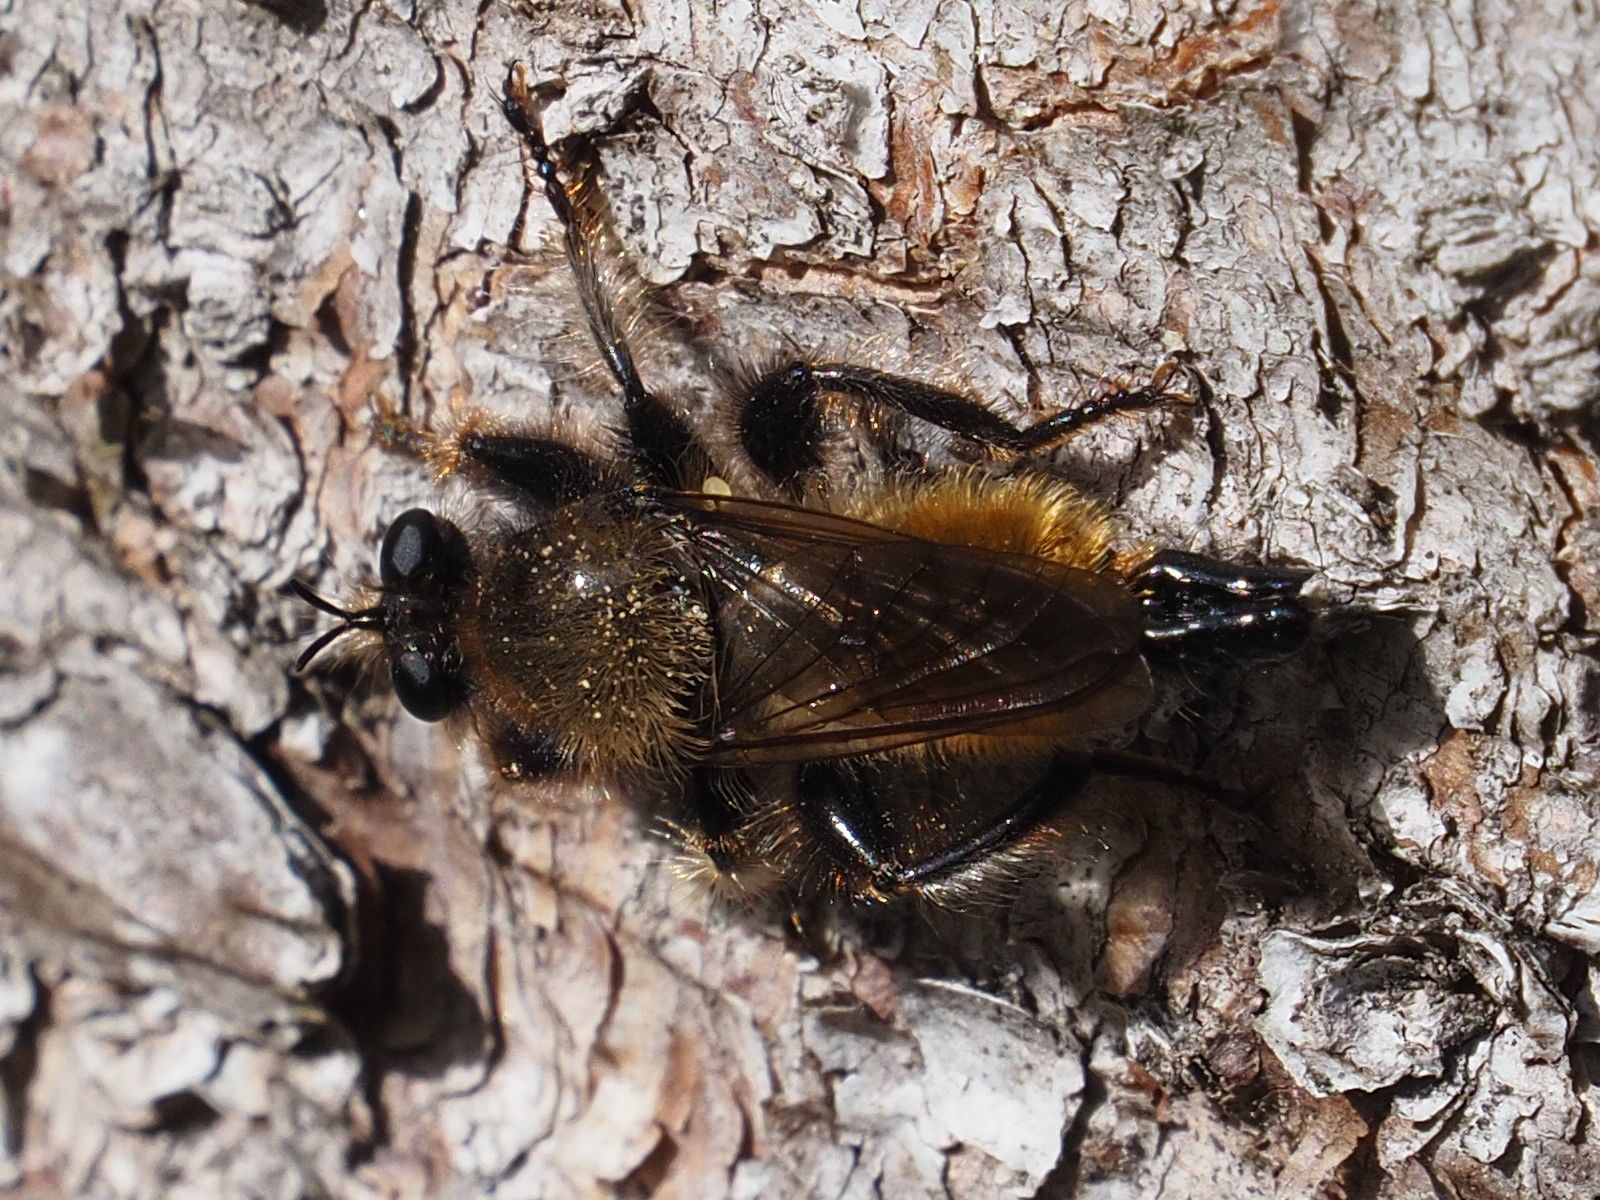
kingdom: Animalia
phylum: Arthropoda
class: Insecta
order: Diptera
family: Asilidae
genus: Laphria
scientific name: Laphria flava
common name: Bumblebee robberfly
